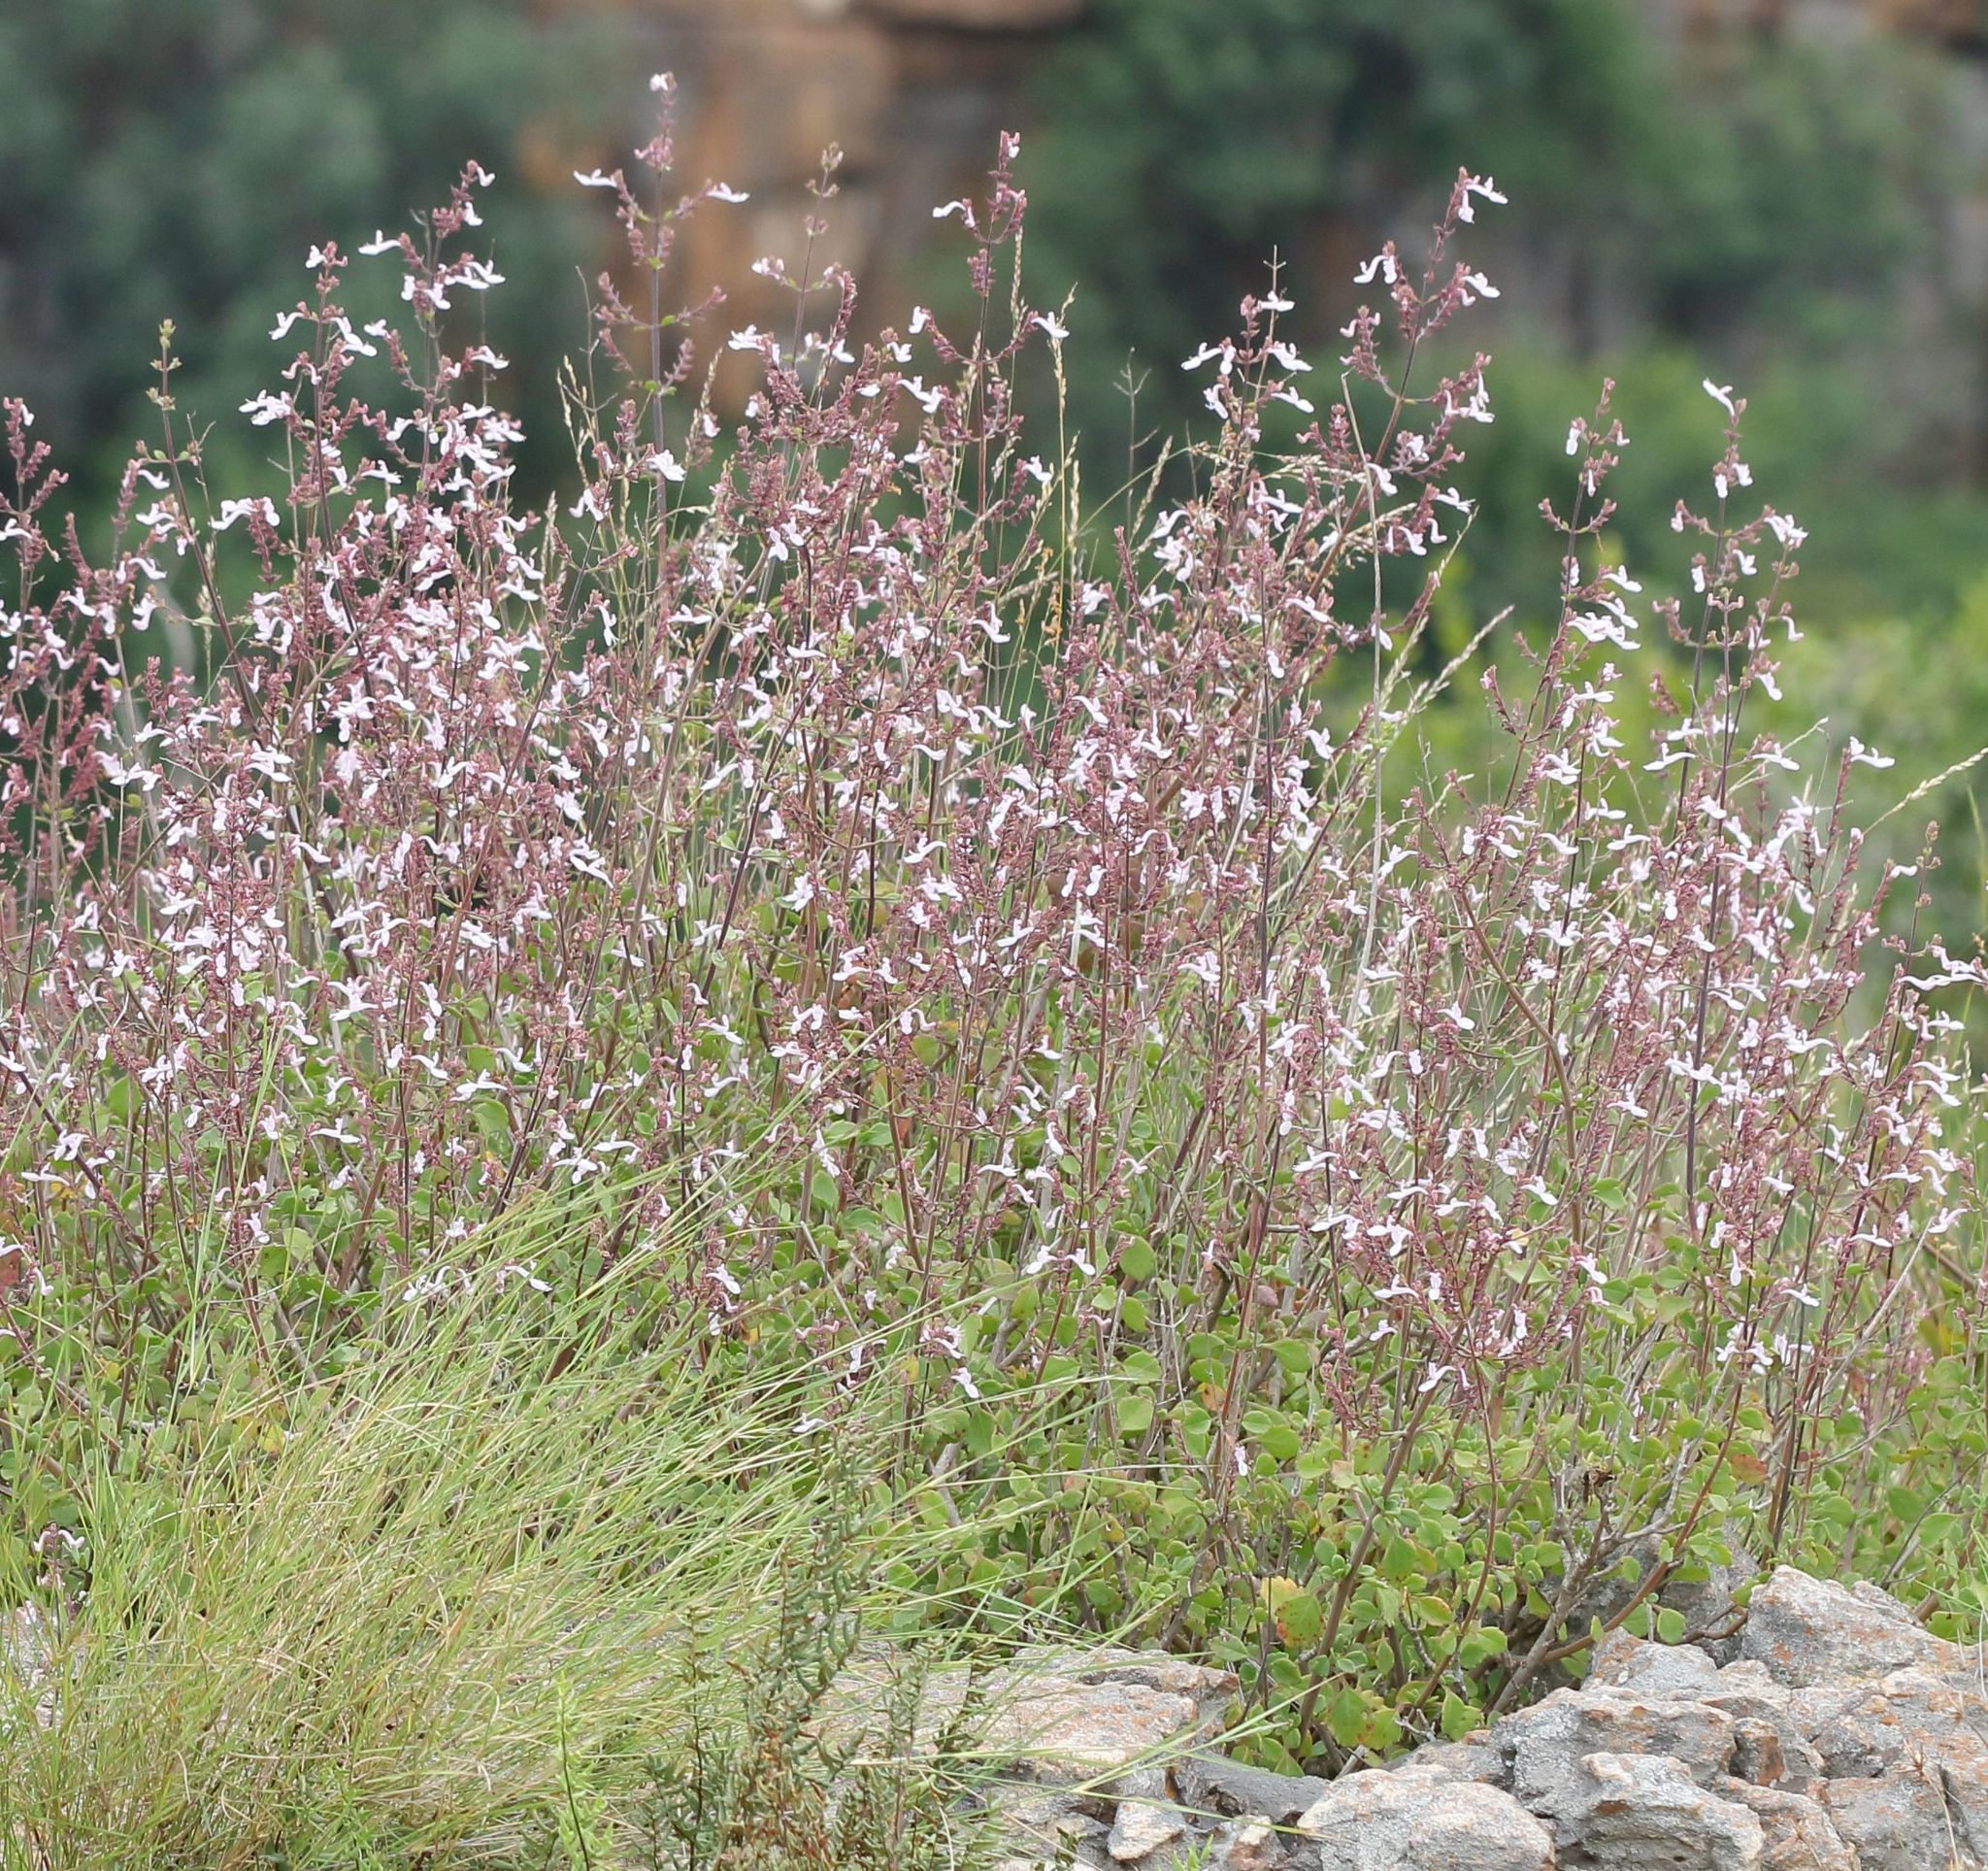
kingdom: Plantae
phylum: Tracheophyta
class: Magnoliopsida
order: Lamiales
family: Lamiaceae
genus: Aeollanthus
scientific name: Aeollanthus parvifolius
